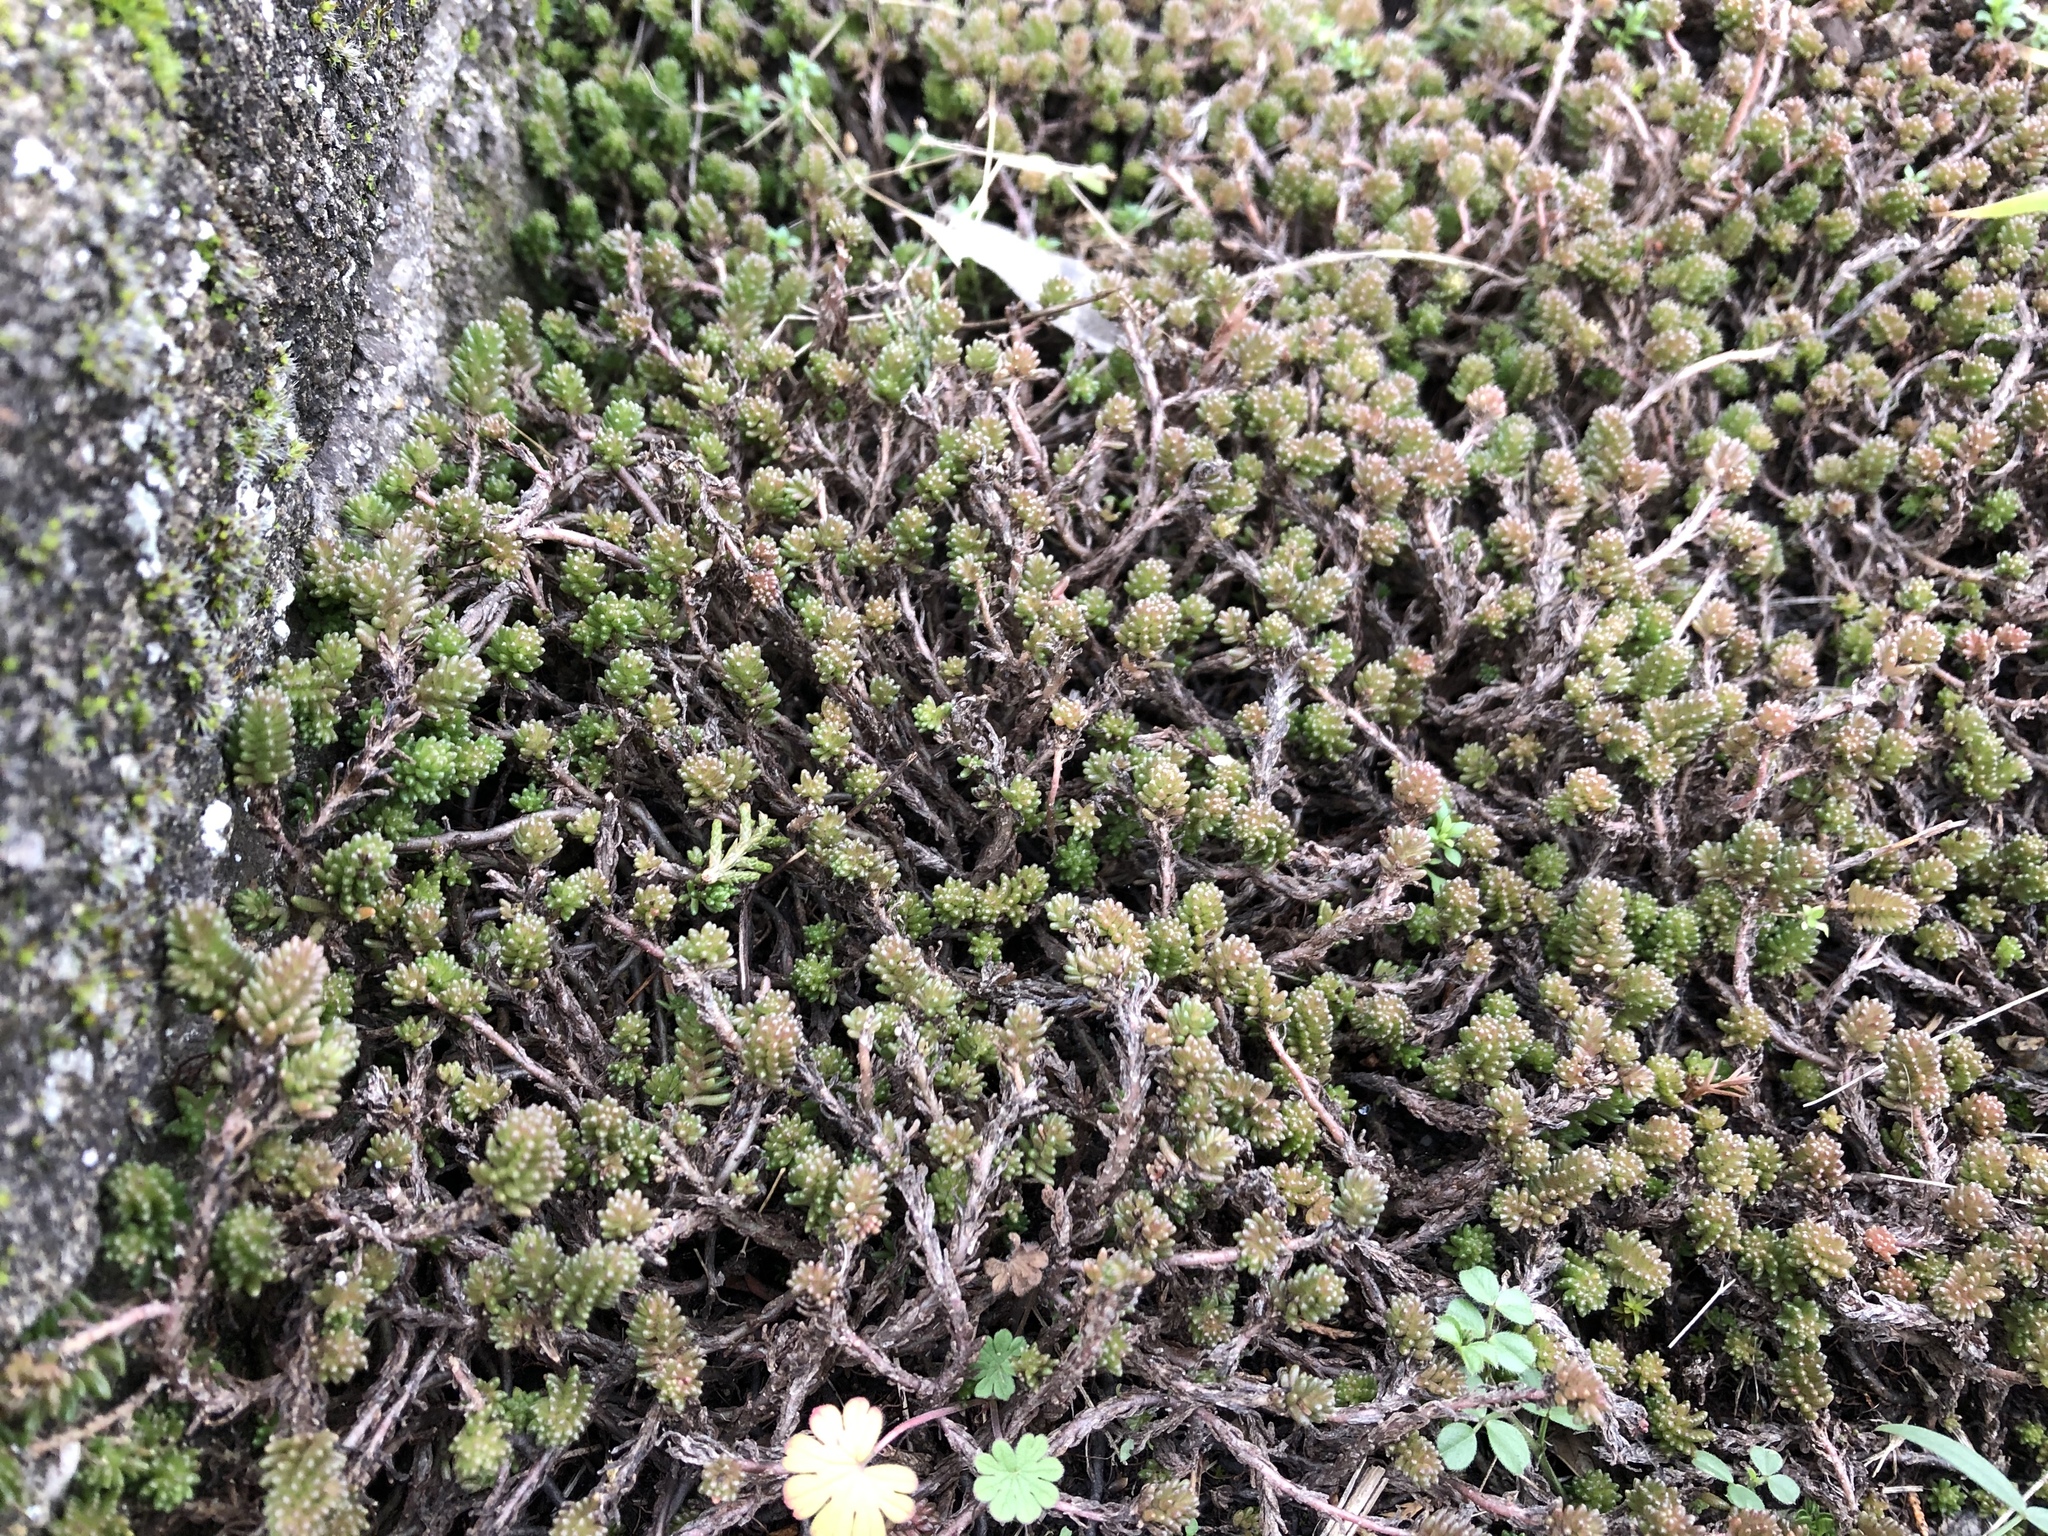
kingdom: Plantae
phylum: Tracheophyta
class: Magnoliopsida
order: Saxifragales
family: Crassulaceae
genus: Sedum
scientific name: Sedum sexangulare
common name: Tasteless stonecrop
